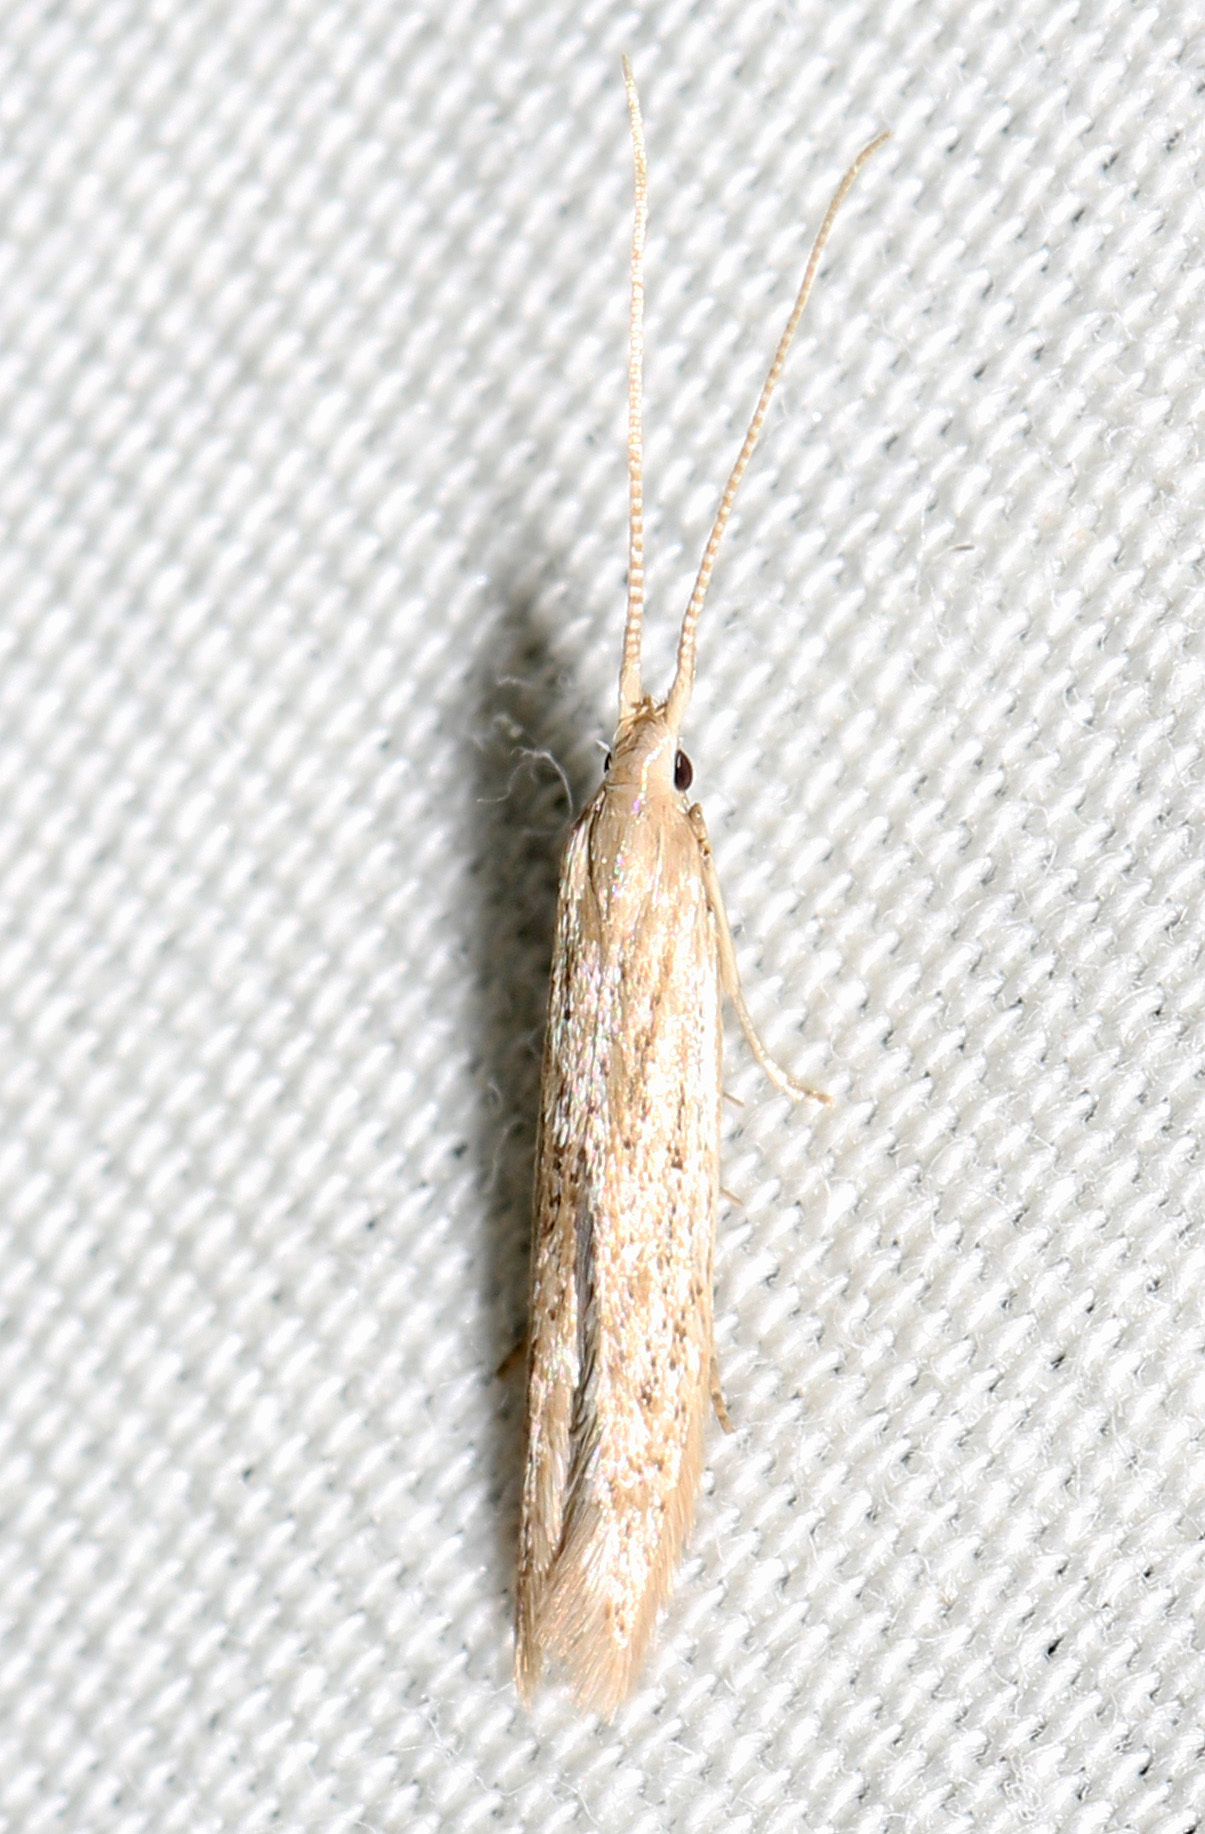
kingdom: Animalia
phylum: Arthropoda
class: Insecta
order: Lepidoptera
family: Coleophoridae
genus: Coleophora
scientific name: Coleophora
